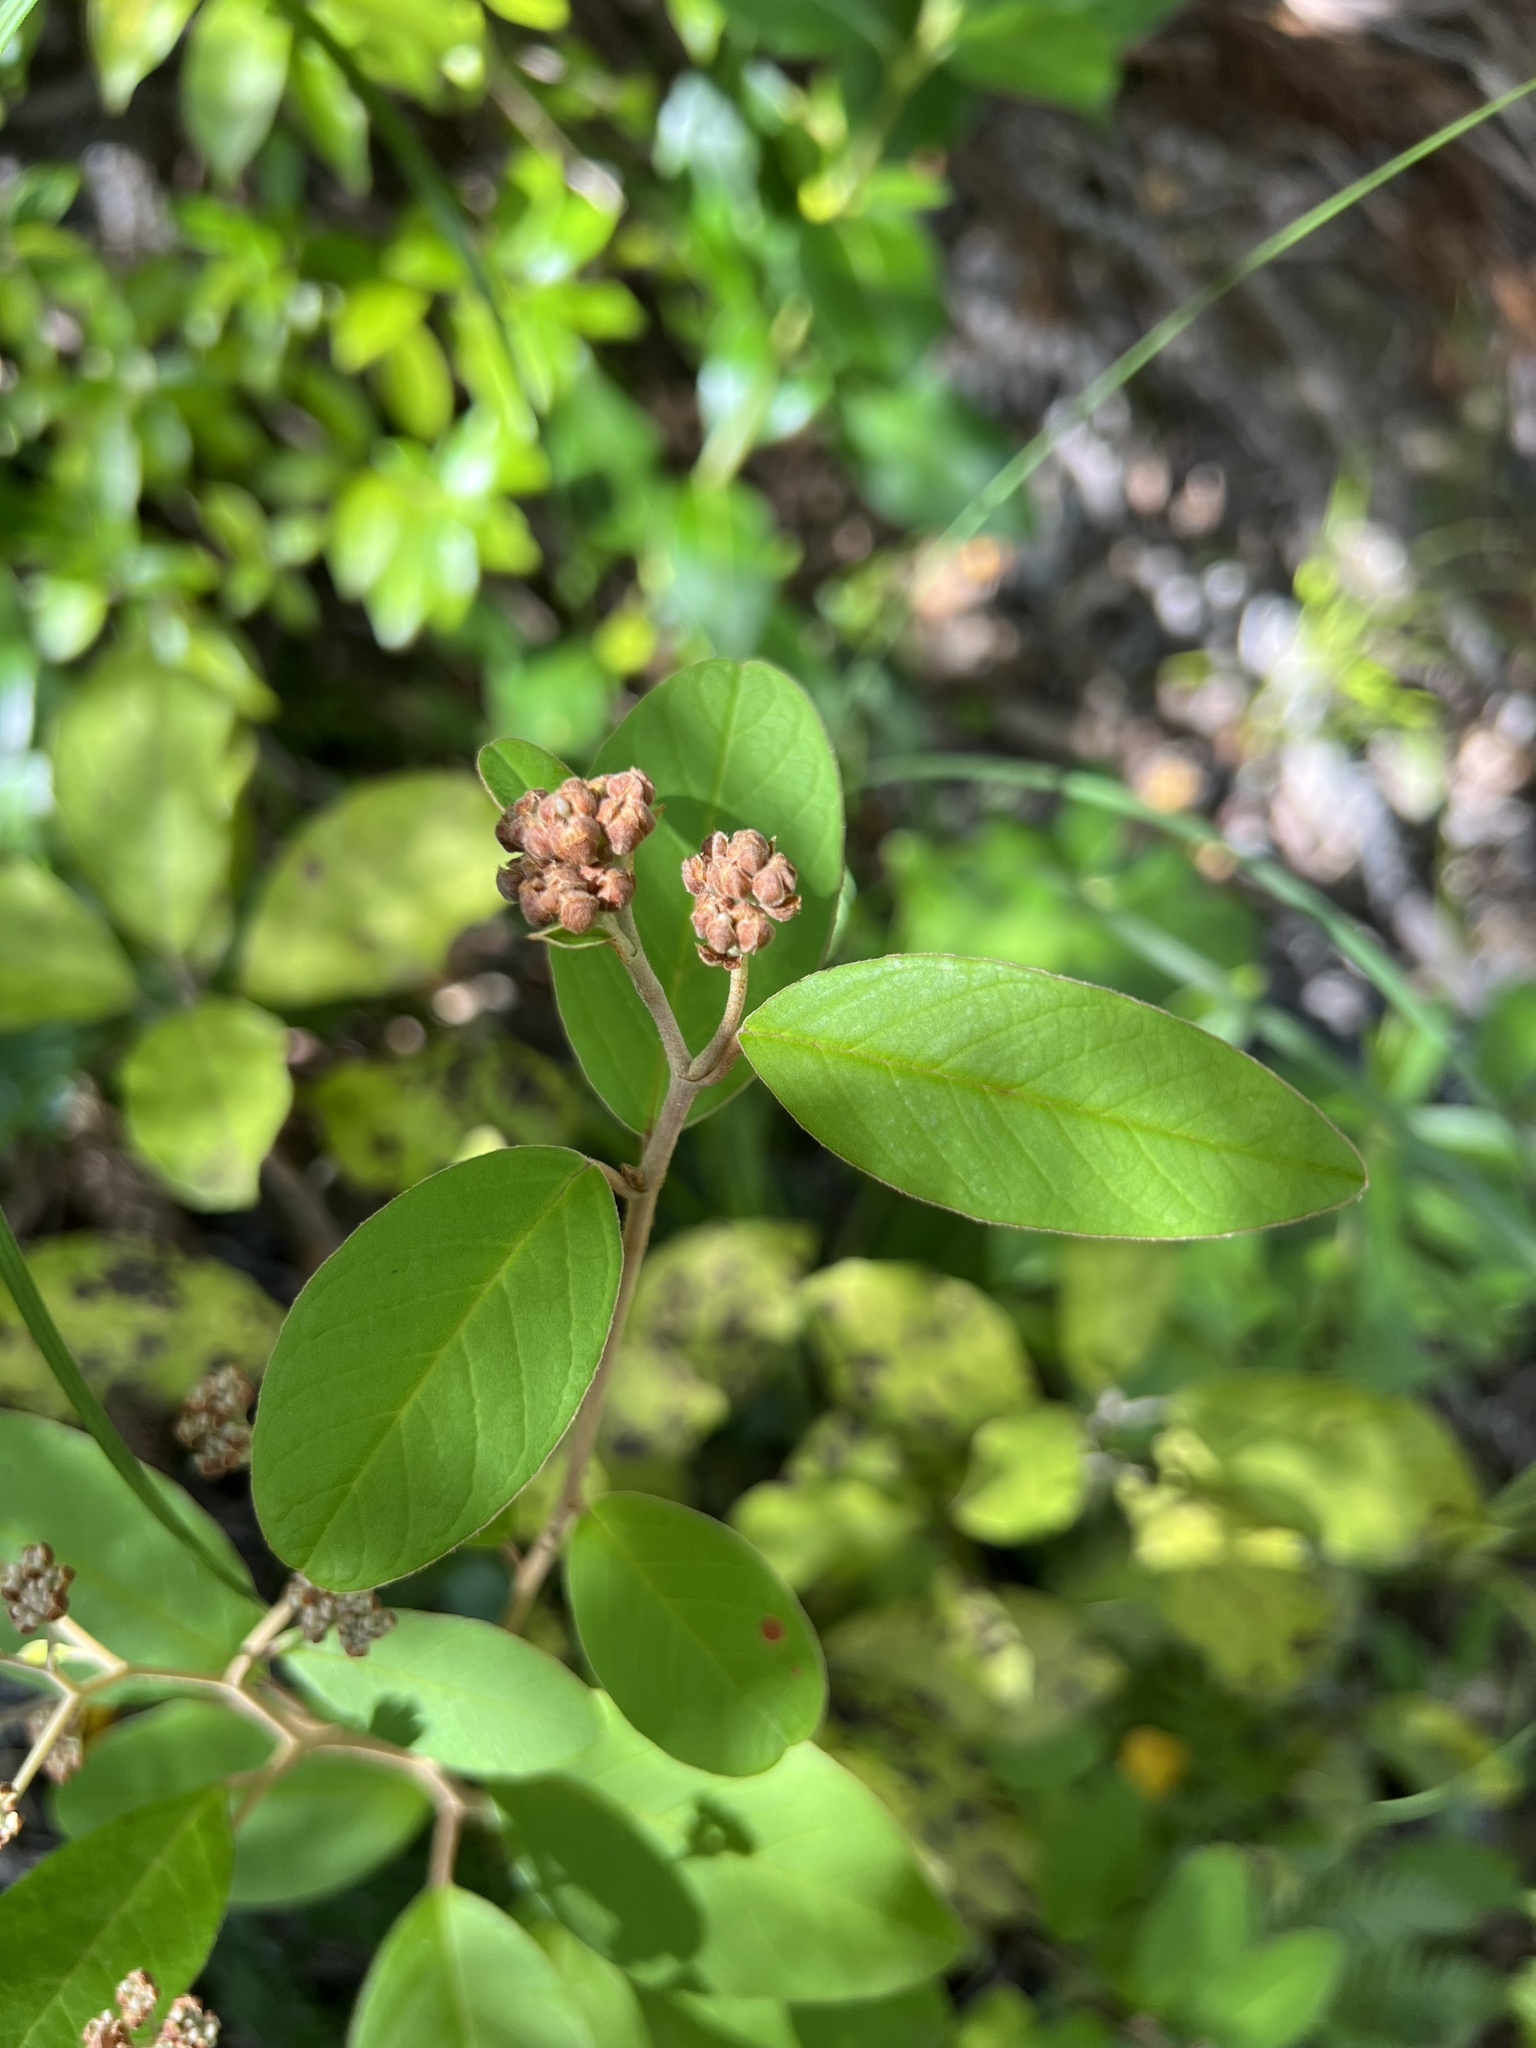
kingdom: Plantae
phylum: Tracheophyta
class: Magnoliopsida
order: Rosales
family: Rhamnaceae
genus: Pomaderris
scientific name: Pomaderris kumeraho
